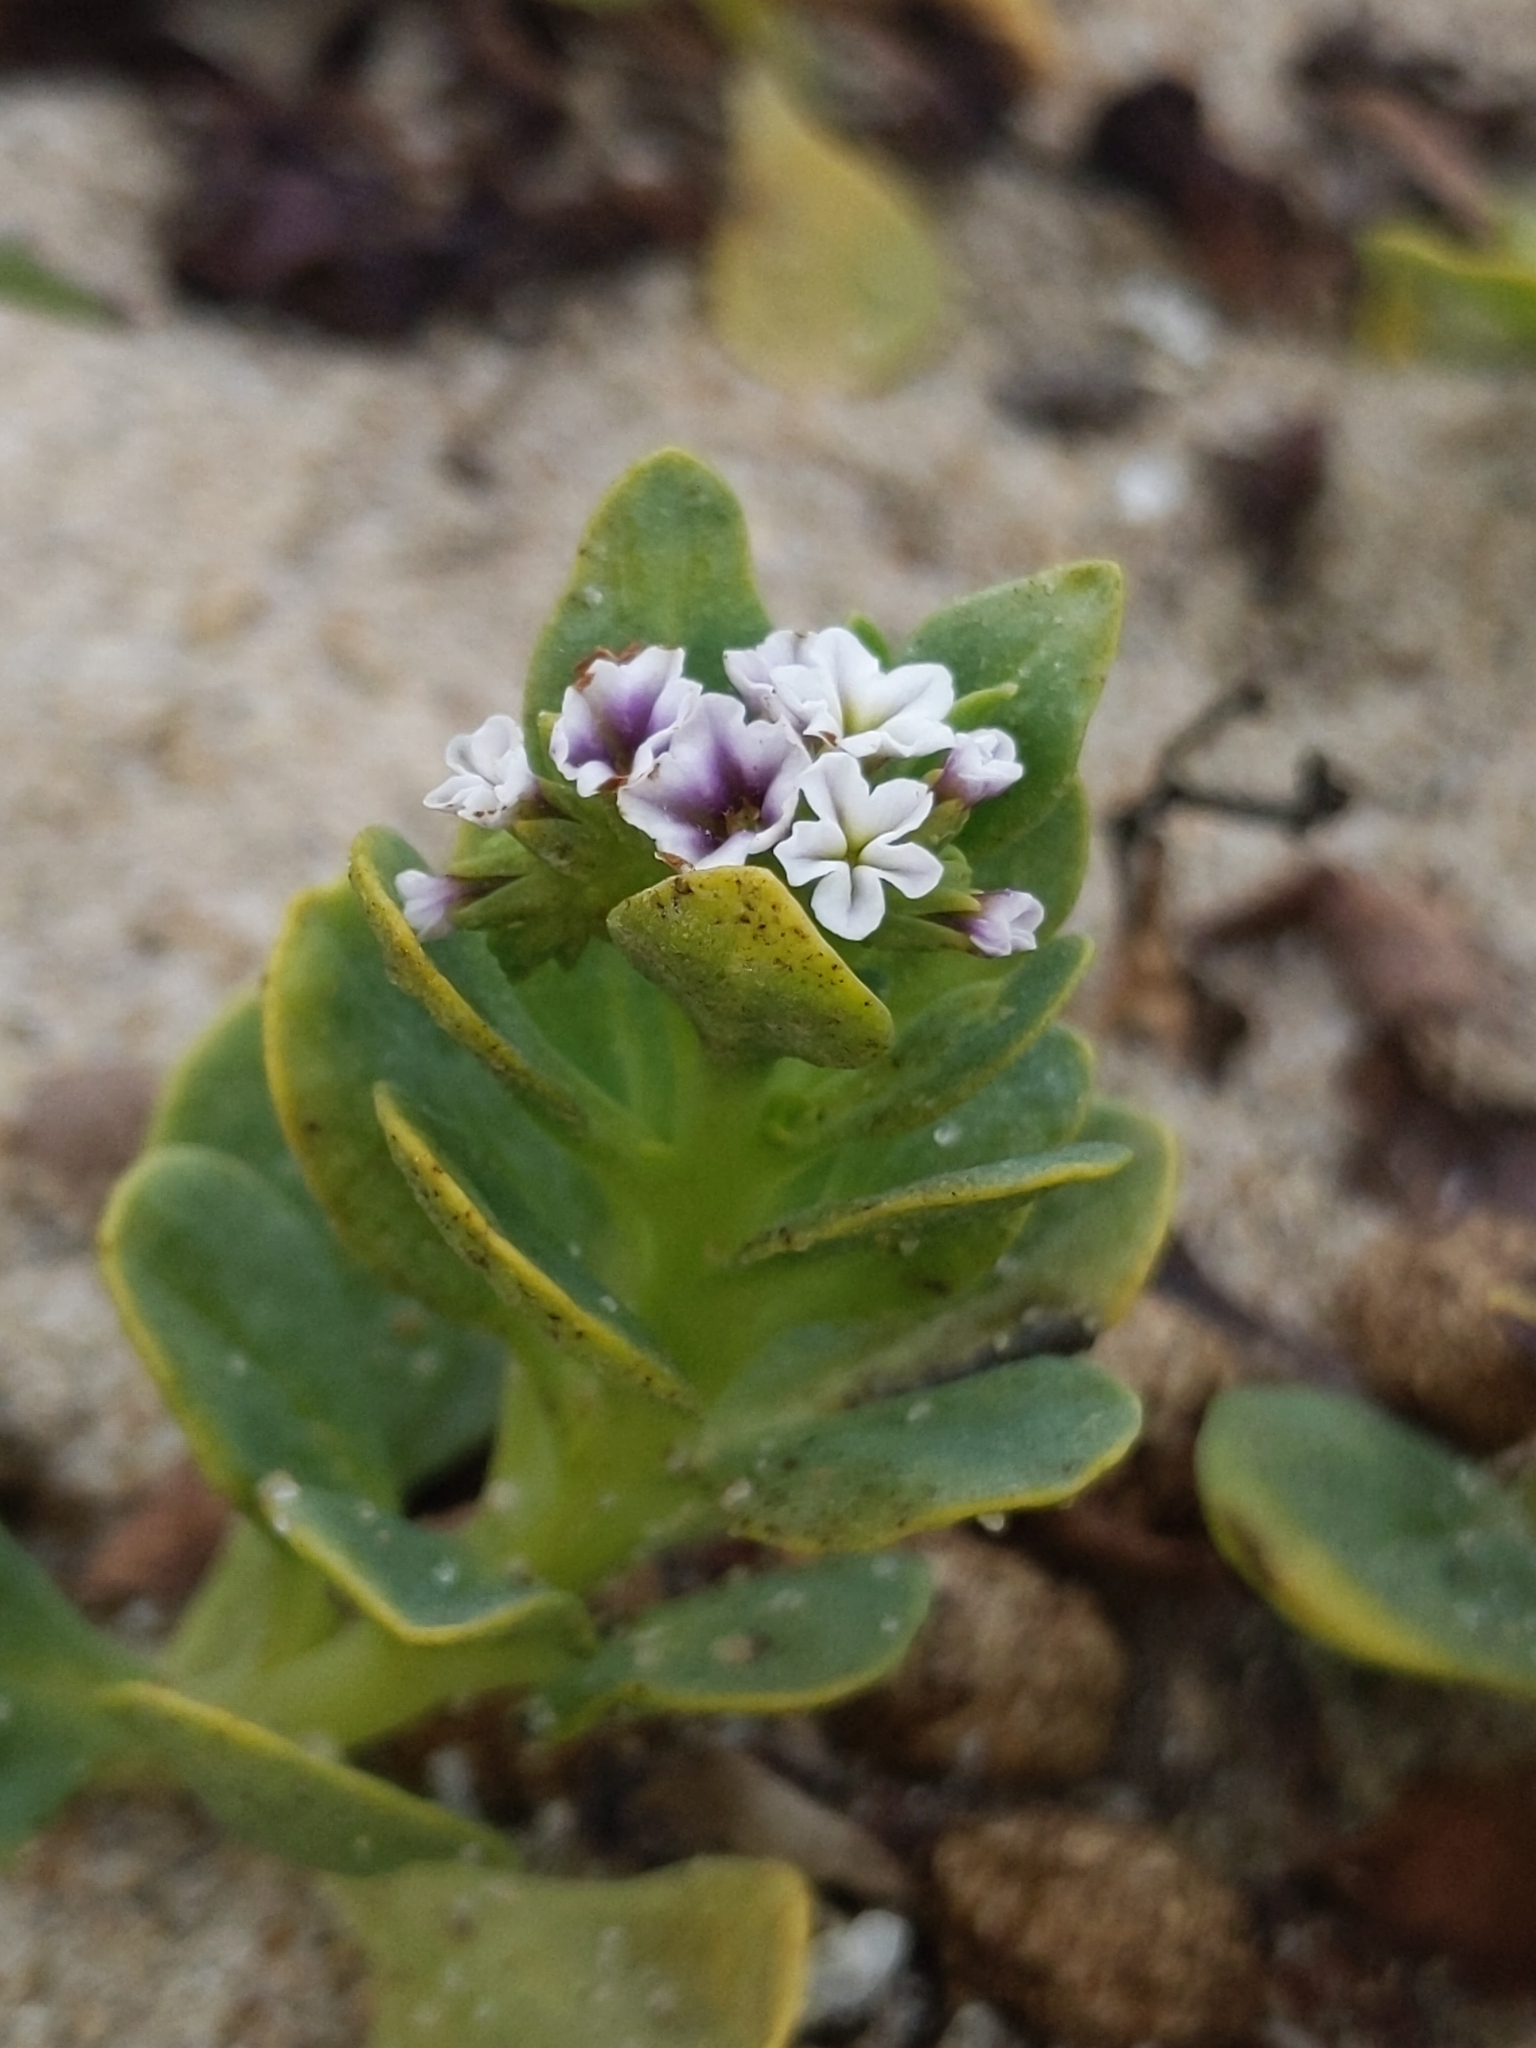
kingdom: Plantae
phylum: Tracheophyta
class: Magnoliopsida
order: Boraginales
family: Heliotropiaceae
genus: Heliotropium
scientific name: Heliotropium curassavicum
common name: Seaside heliotrope
